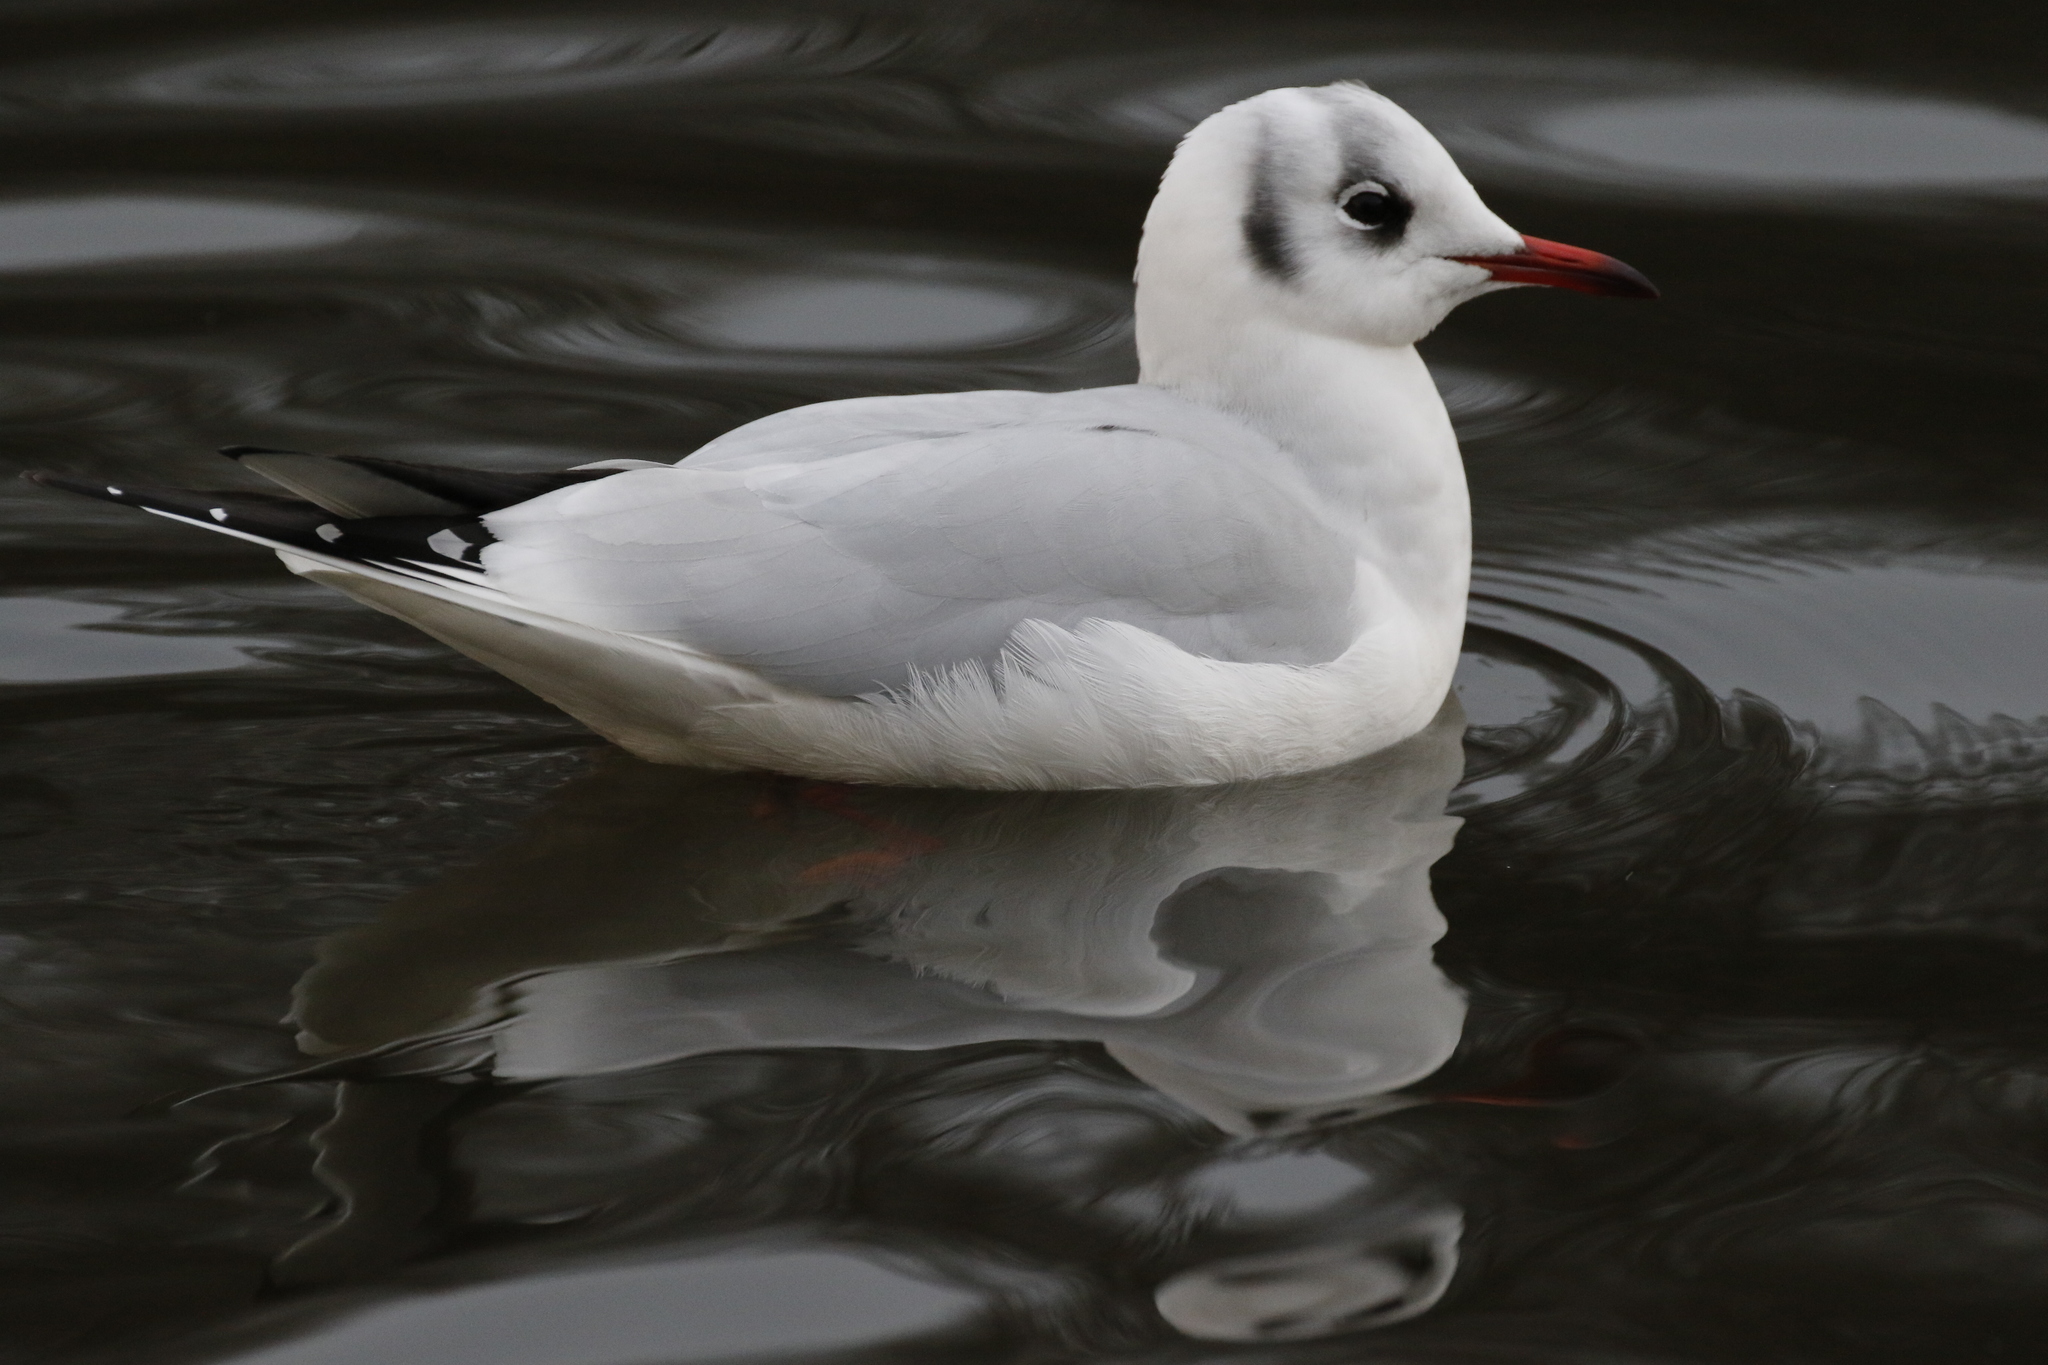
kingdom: Animalia
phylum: Chordata
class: Aves
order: Charadriiformes
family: Laridae
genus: Chroicocephalus
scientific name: Chroicocephalus ridibundus
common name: Black-headed gull
